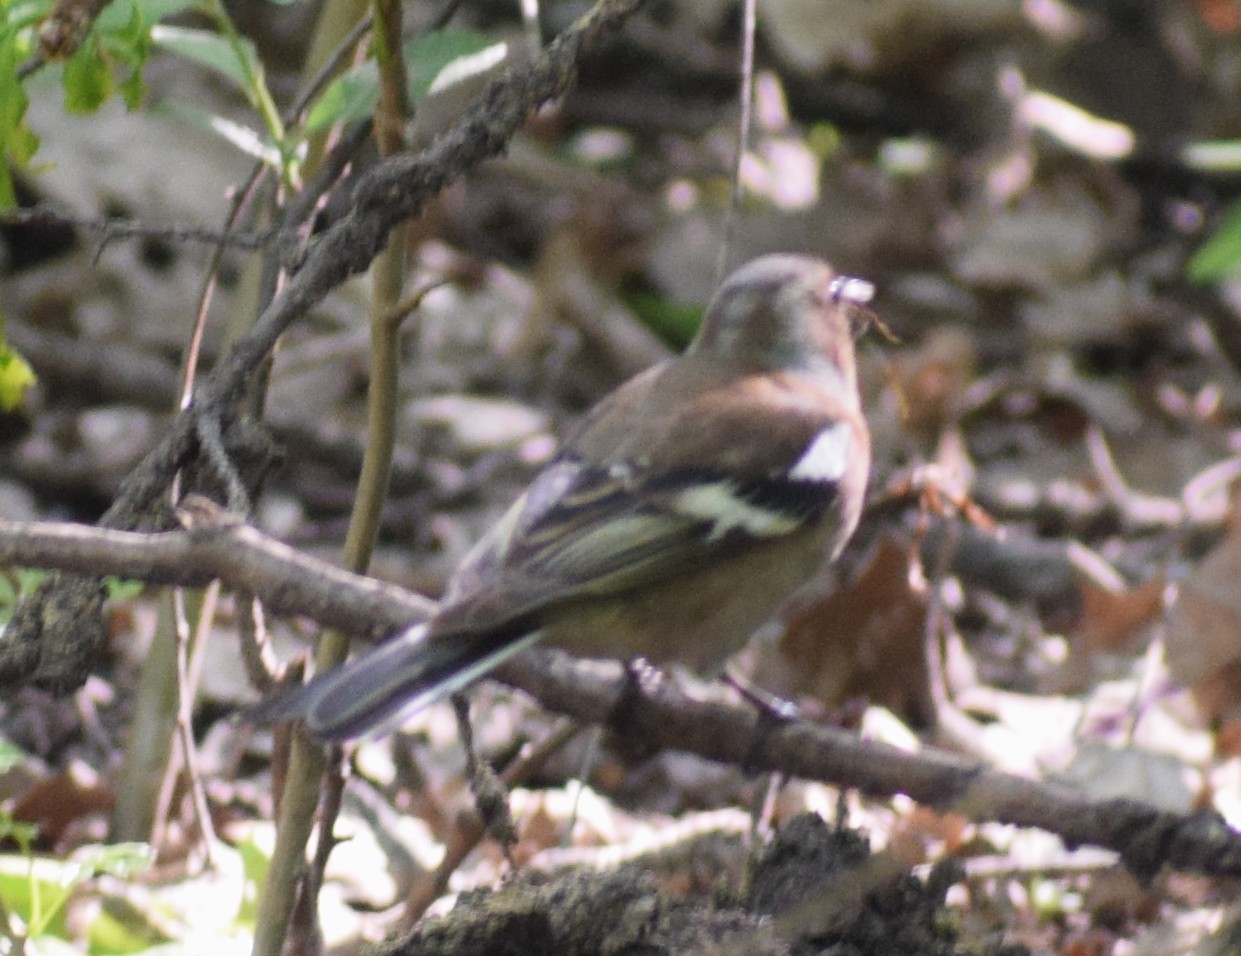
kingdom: Animalia
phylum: Chordata
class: Aves
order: Passeriformes
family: Fringillidae
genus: Fringilla
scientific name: Fringilla coelebs
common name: Common chaffinch
